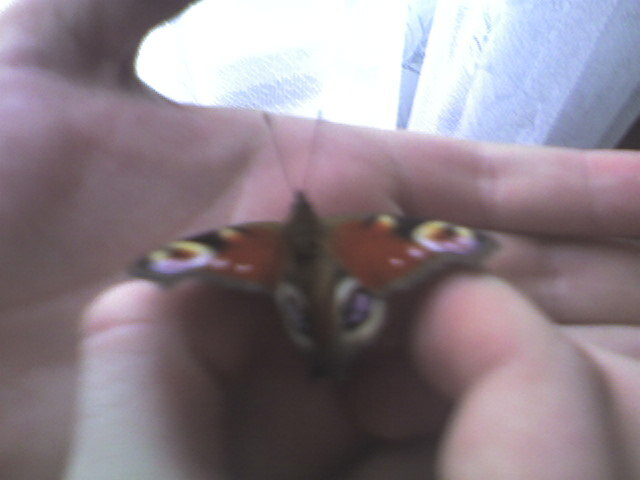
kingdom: Animalia
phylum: Arthropoda
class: Insecta
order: Lepidoptera
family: Nymphalidae
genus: Aglais
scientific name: Aglais io
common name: Peacock
